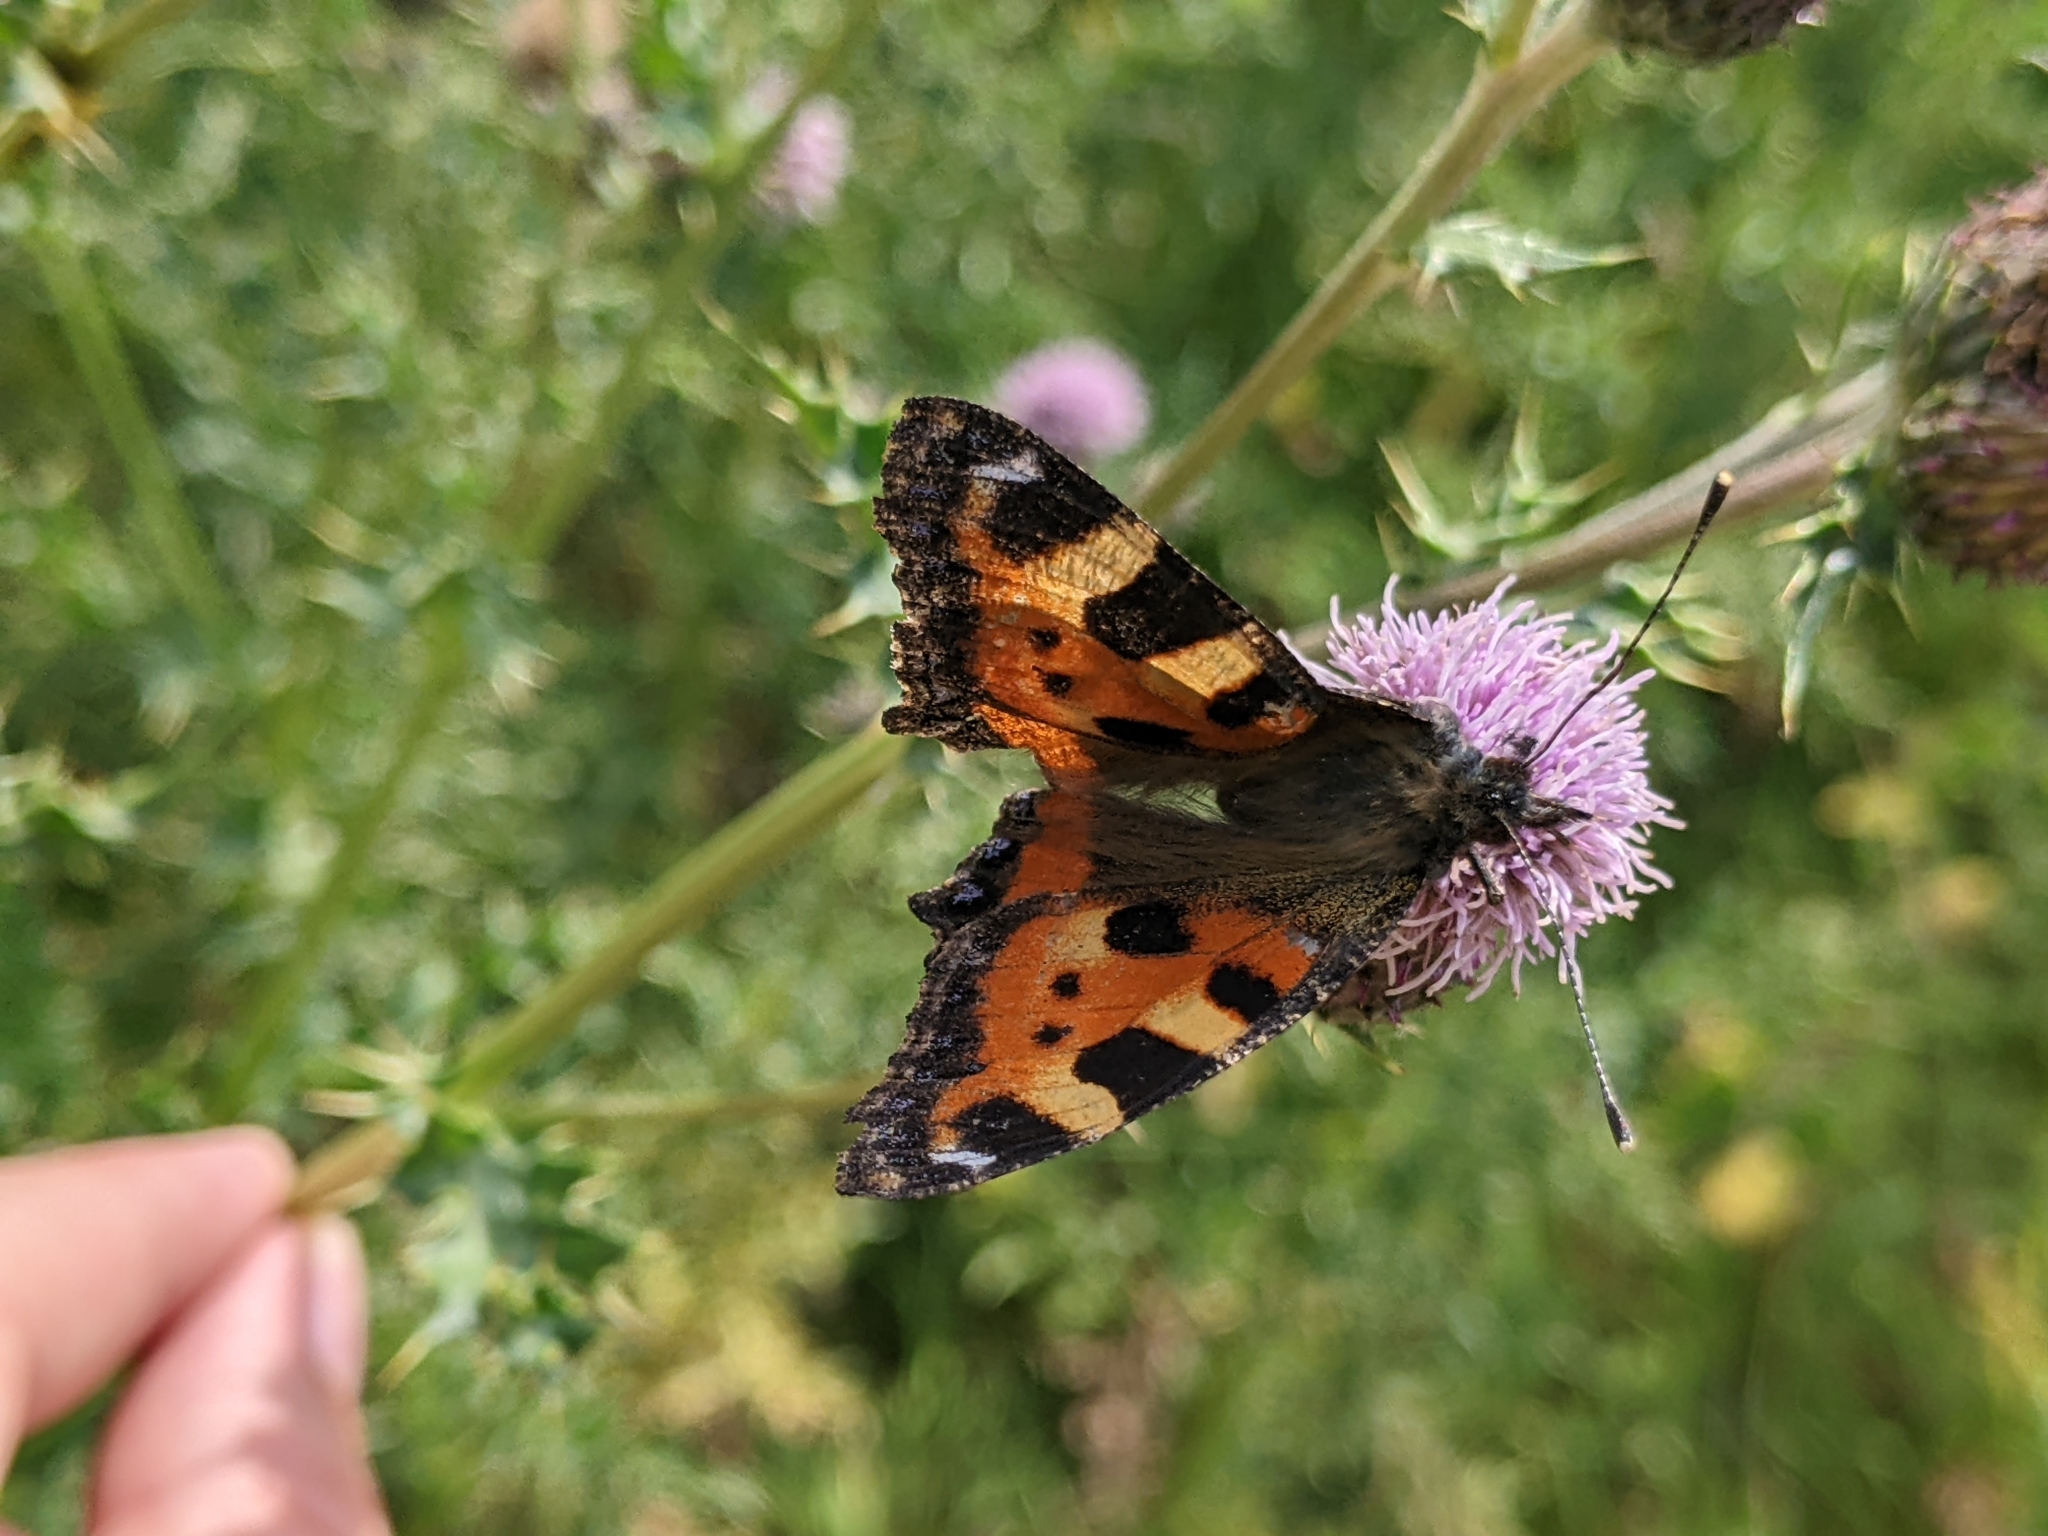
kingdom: Animalia
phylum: Arthropoda
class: Insecta
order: Lepidoptera
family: Nymphalidae
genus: Aglais
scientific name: Aglais urticae
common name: Small tortoiseshell
